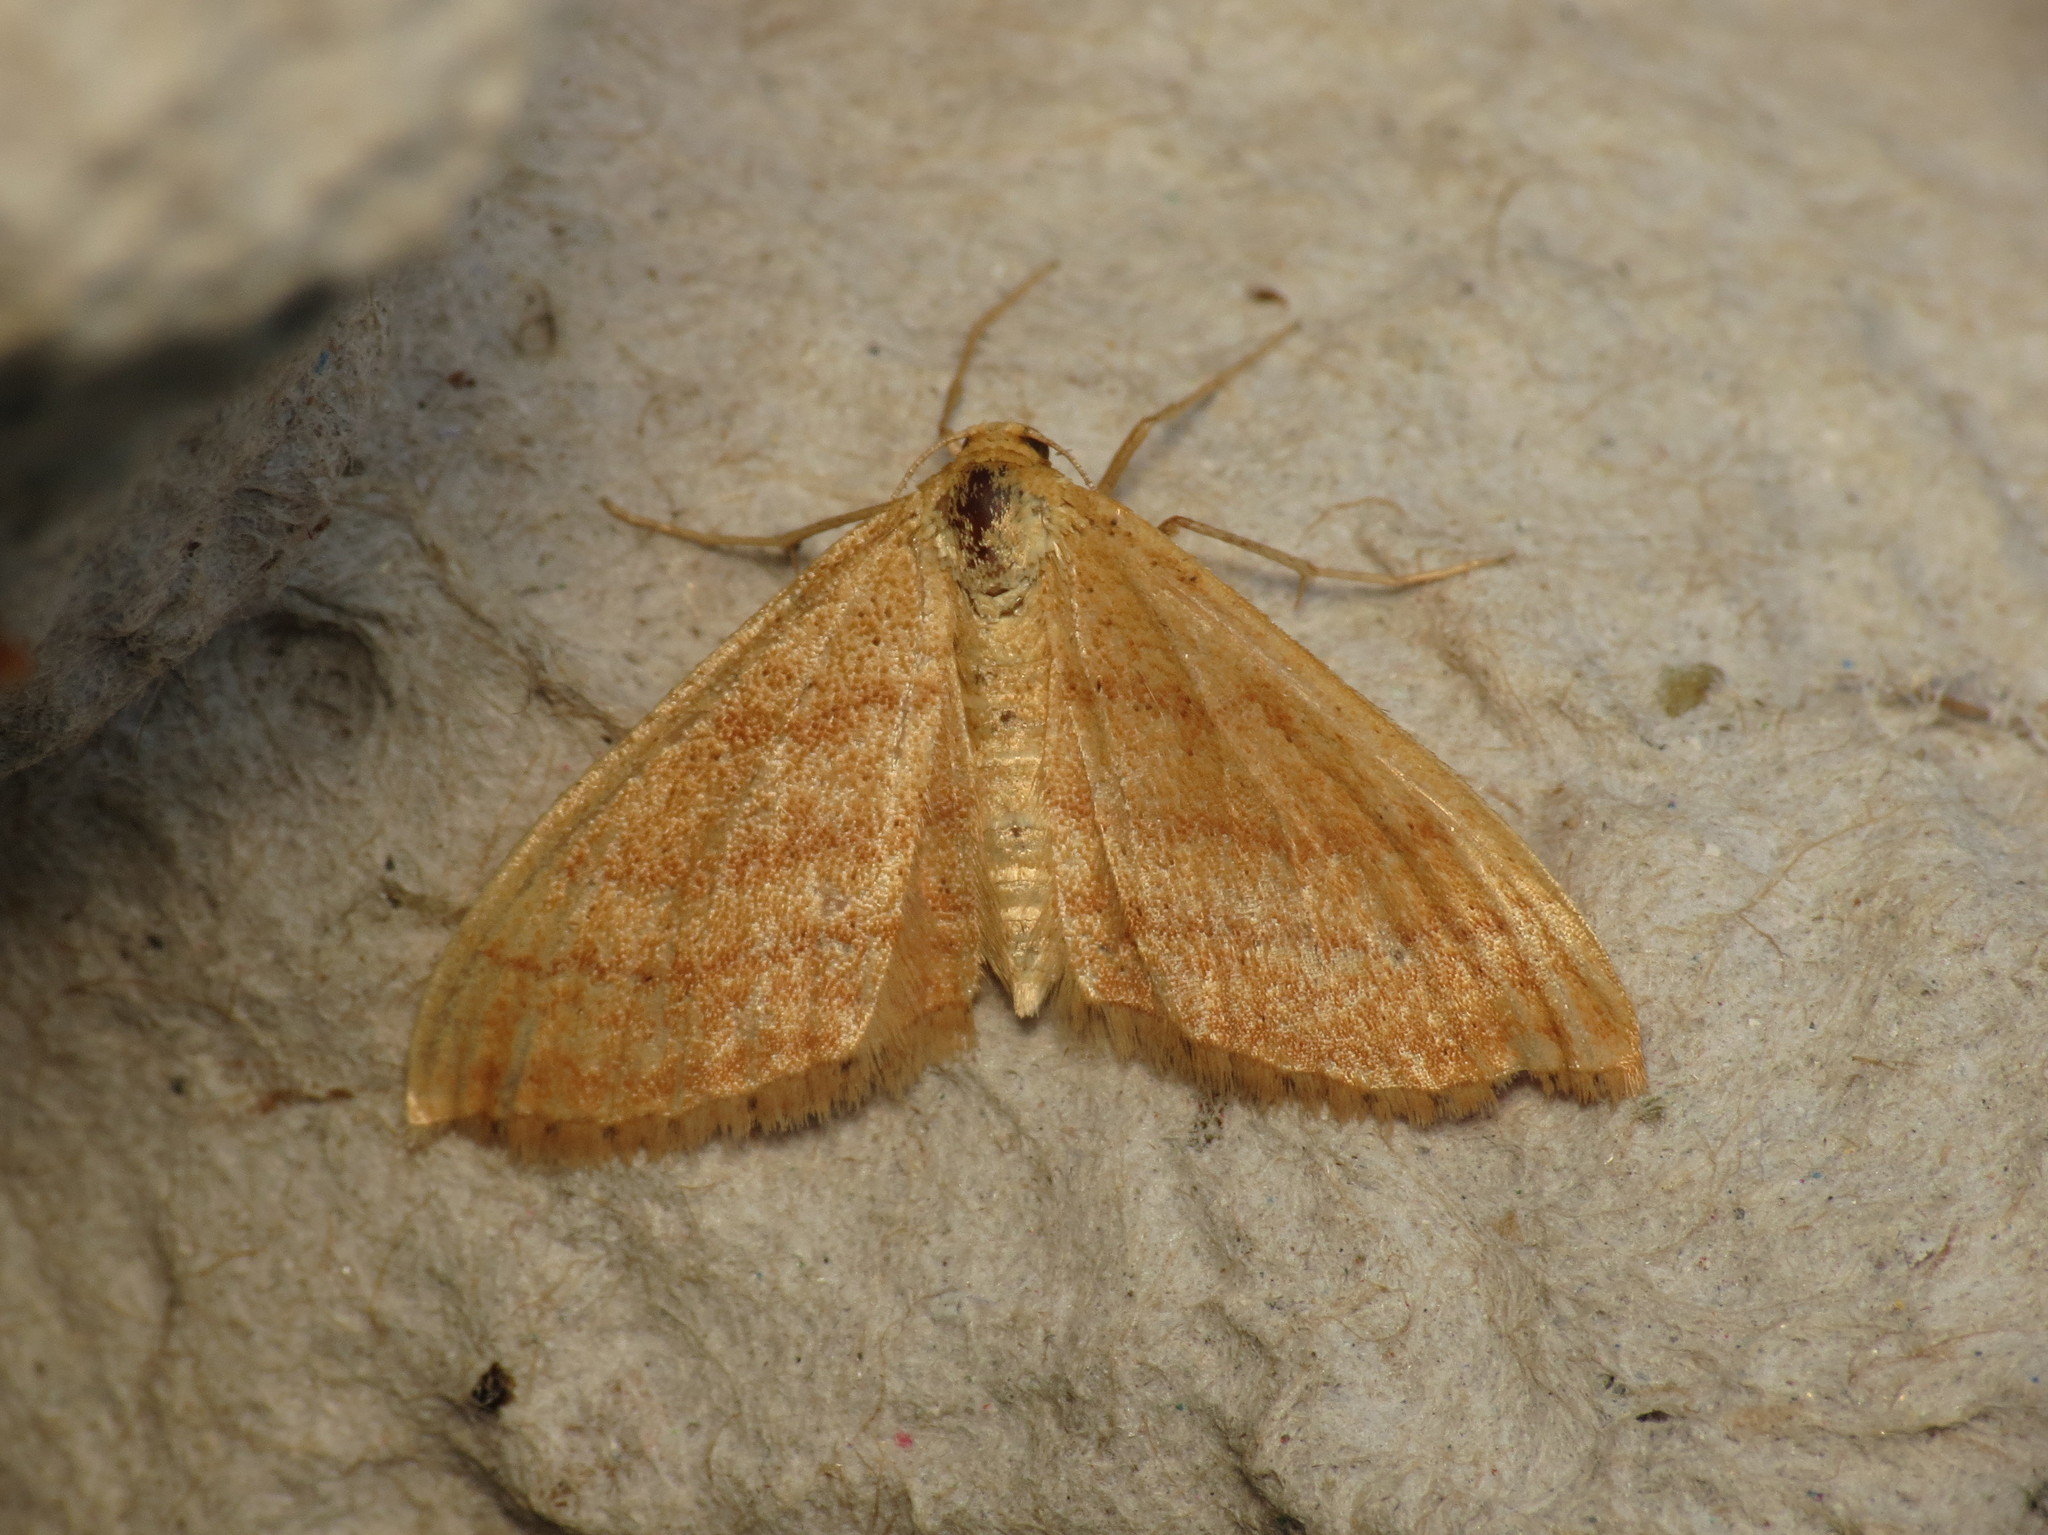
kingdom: Animalia
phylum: Arthropoda
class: Insecta
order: Lepidoptera
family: Geometridae
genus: Idaea
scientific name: Idaea ochrata
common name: Bright wave
